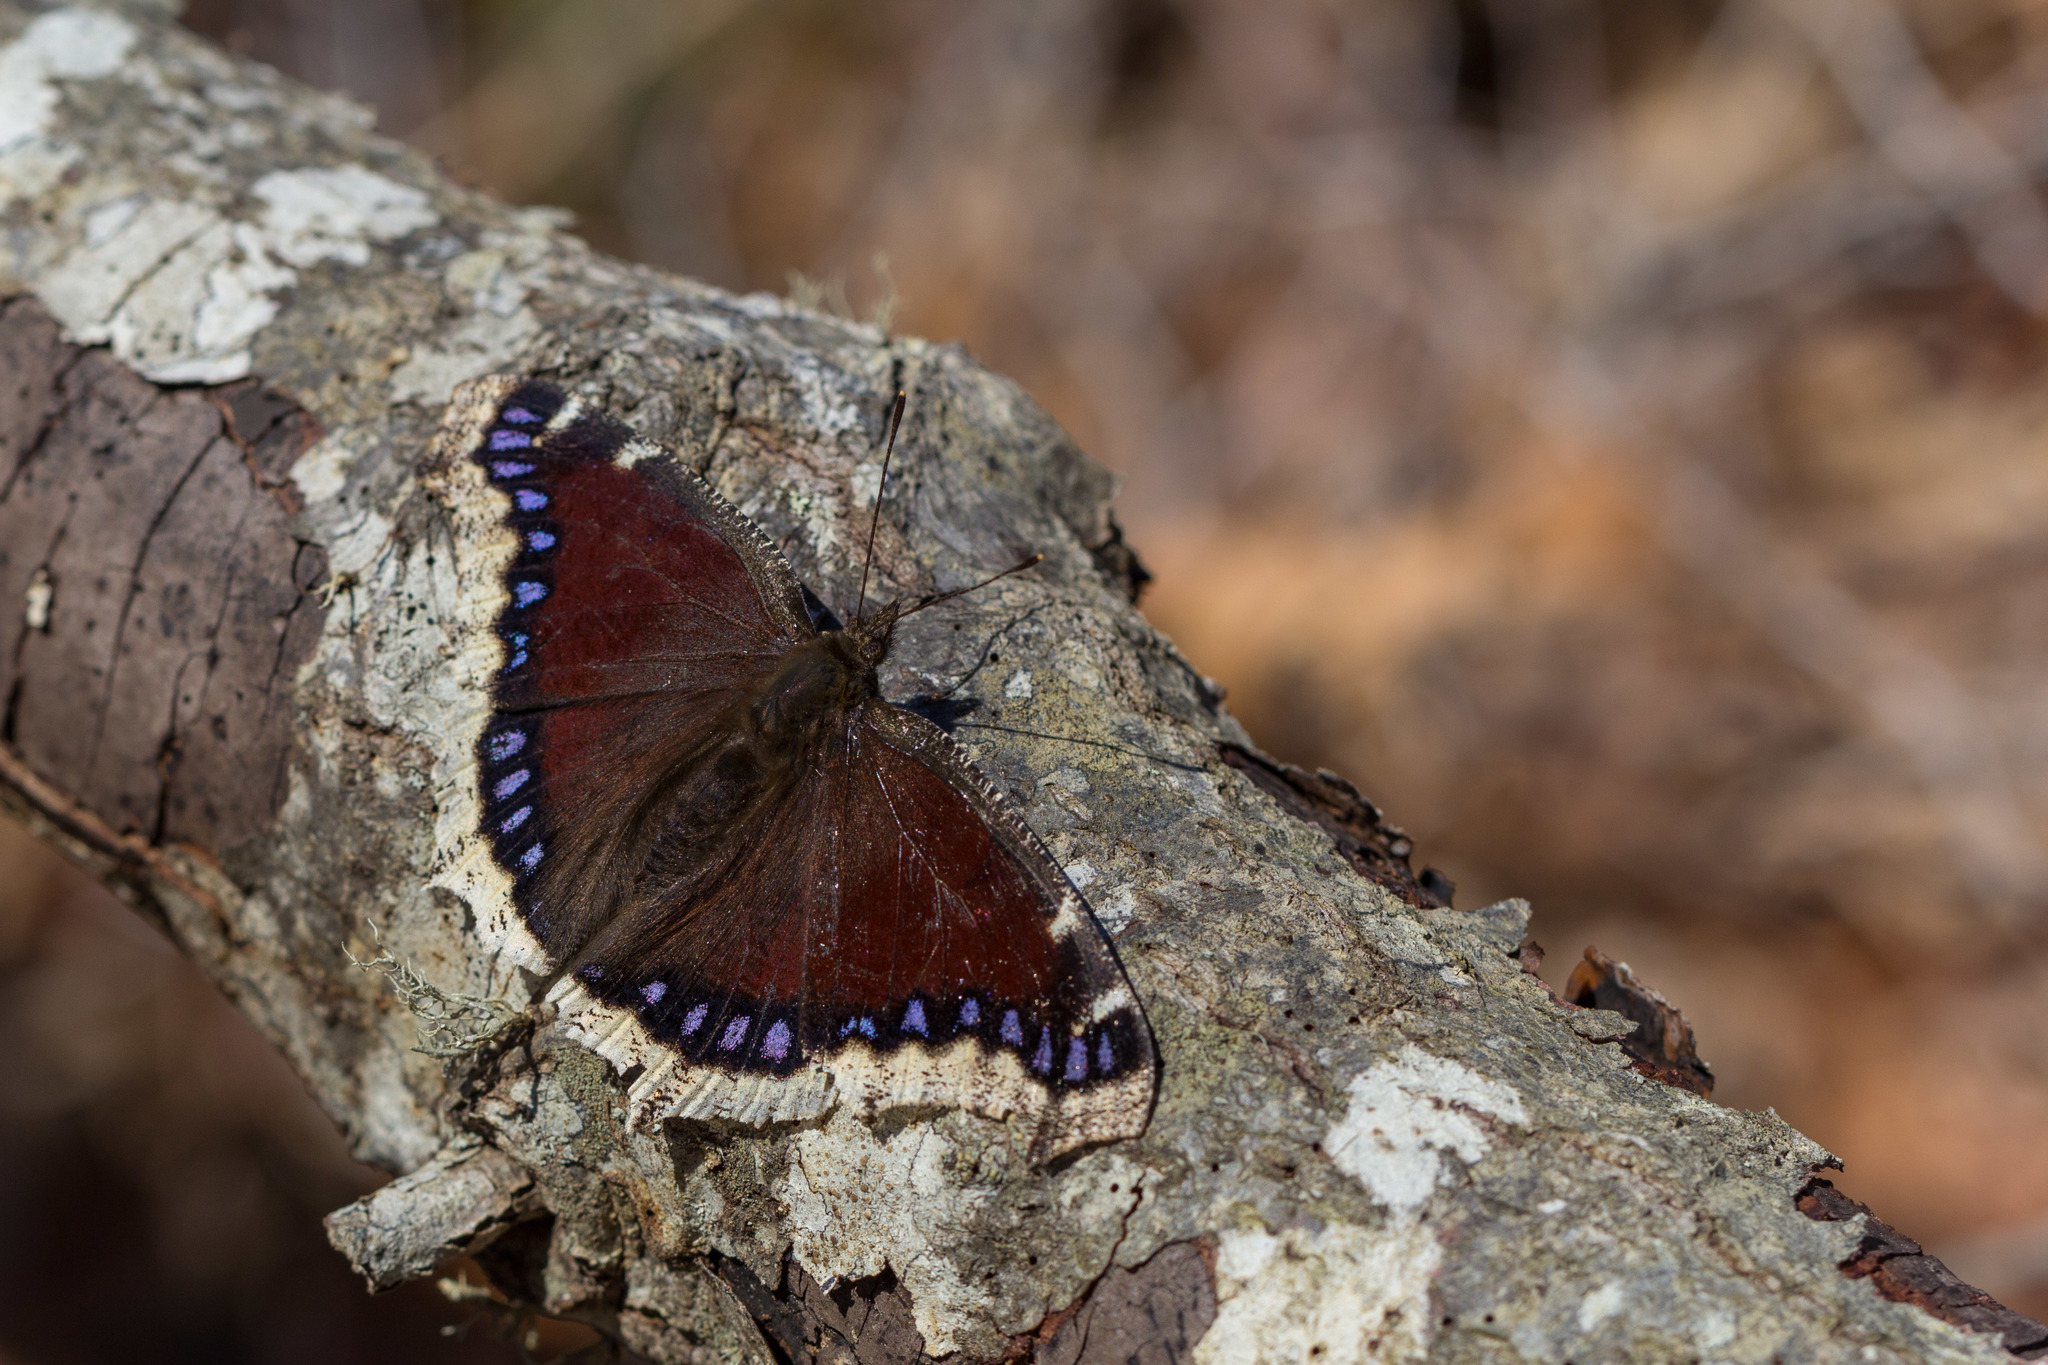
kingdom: Animalia
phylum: Arthropoda
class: Insecta
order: Lepidoptera
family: Nymphalidae
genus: Nymphalis
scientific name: Nymphalis antiopa
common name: Camberwell beauty
